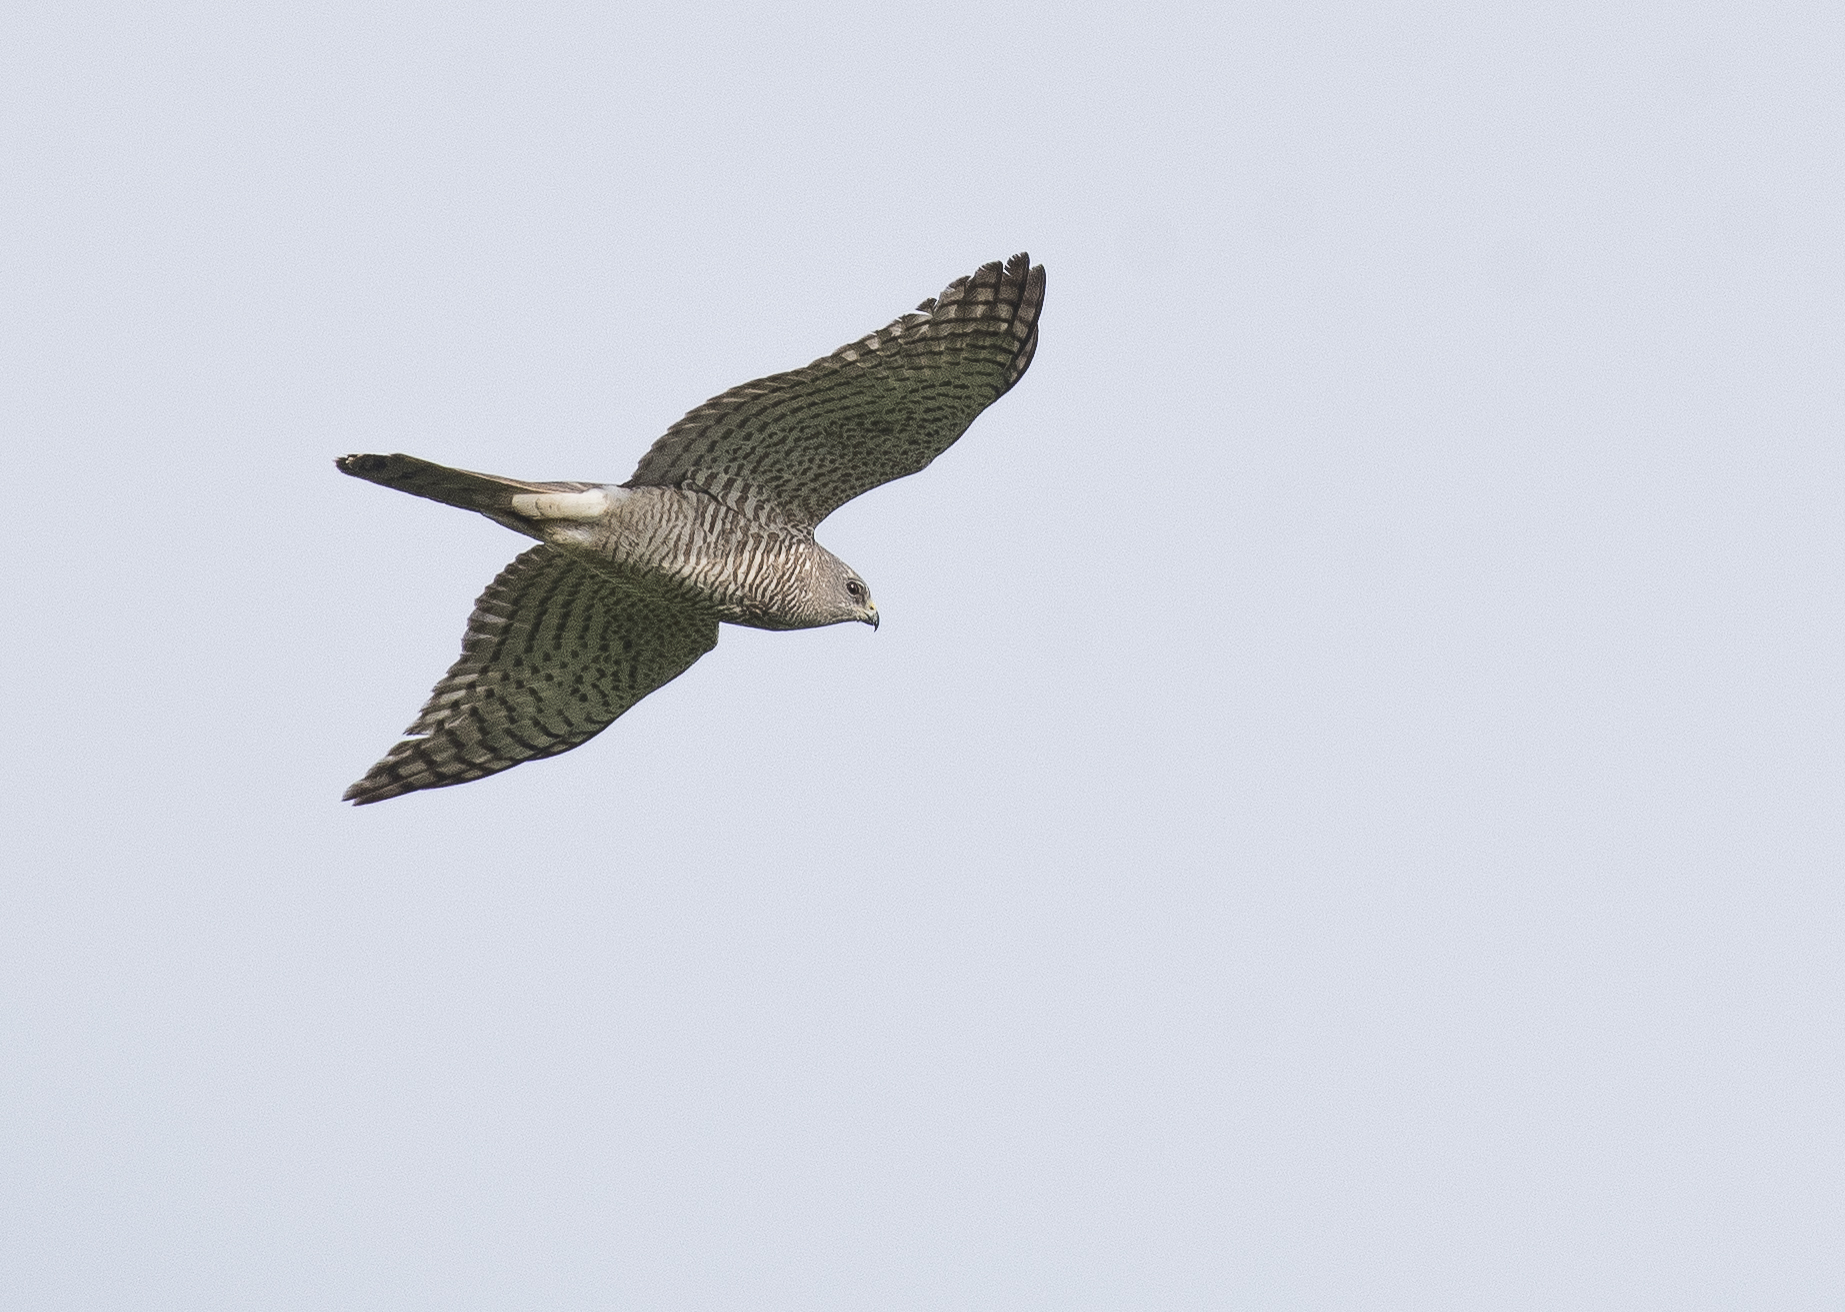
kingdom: Animalia
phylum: Chordata
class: Aves
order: Accipitriformes
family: Accipitridae
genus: Accipiter
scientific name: Accipiter brevipes
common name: Levant sparrowhawk
